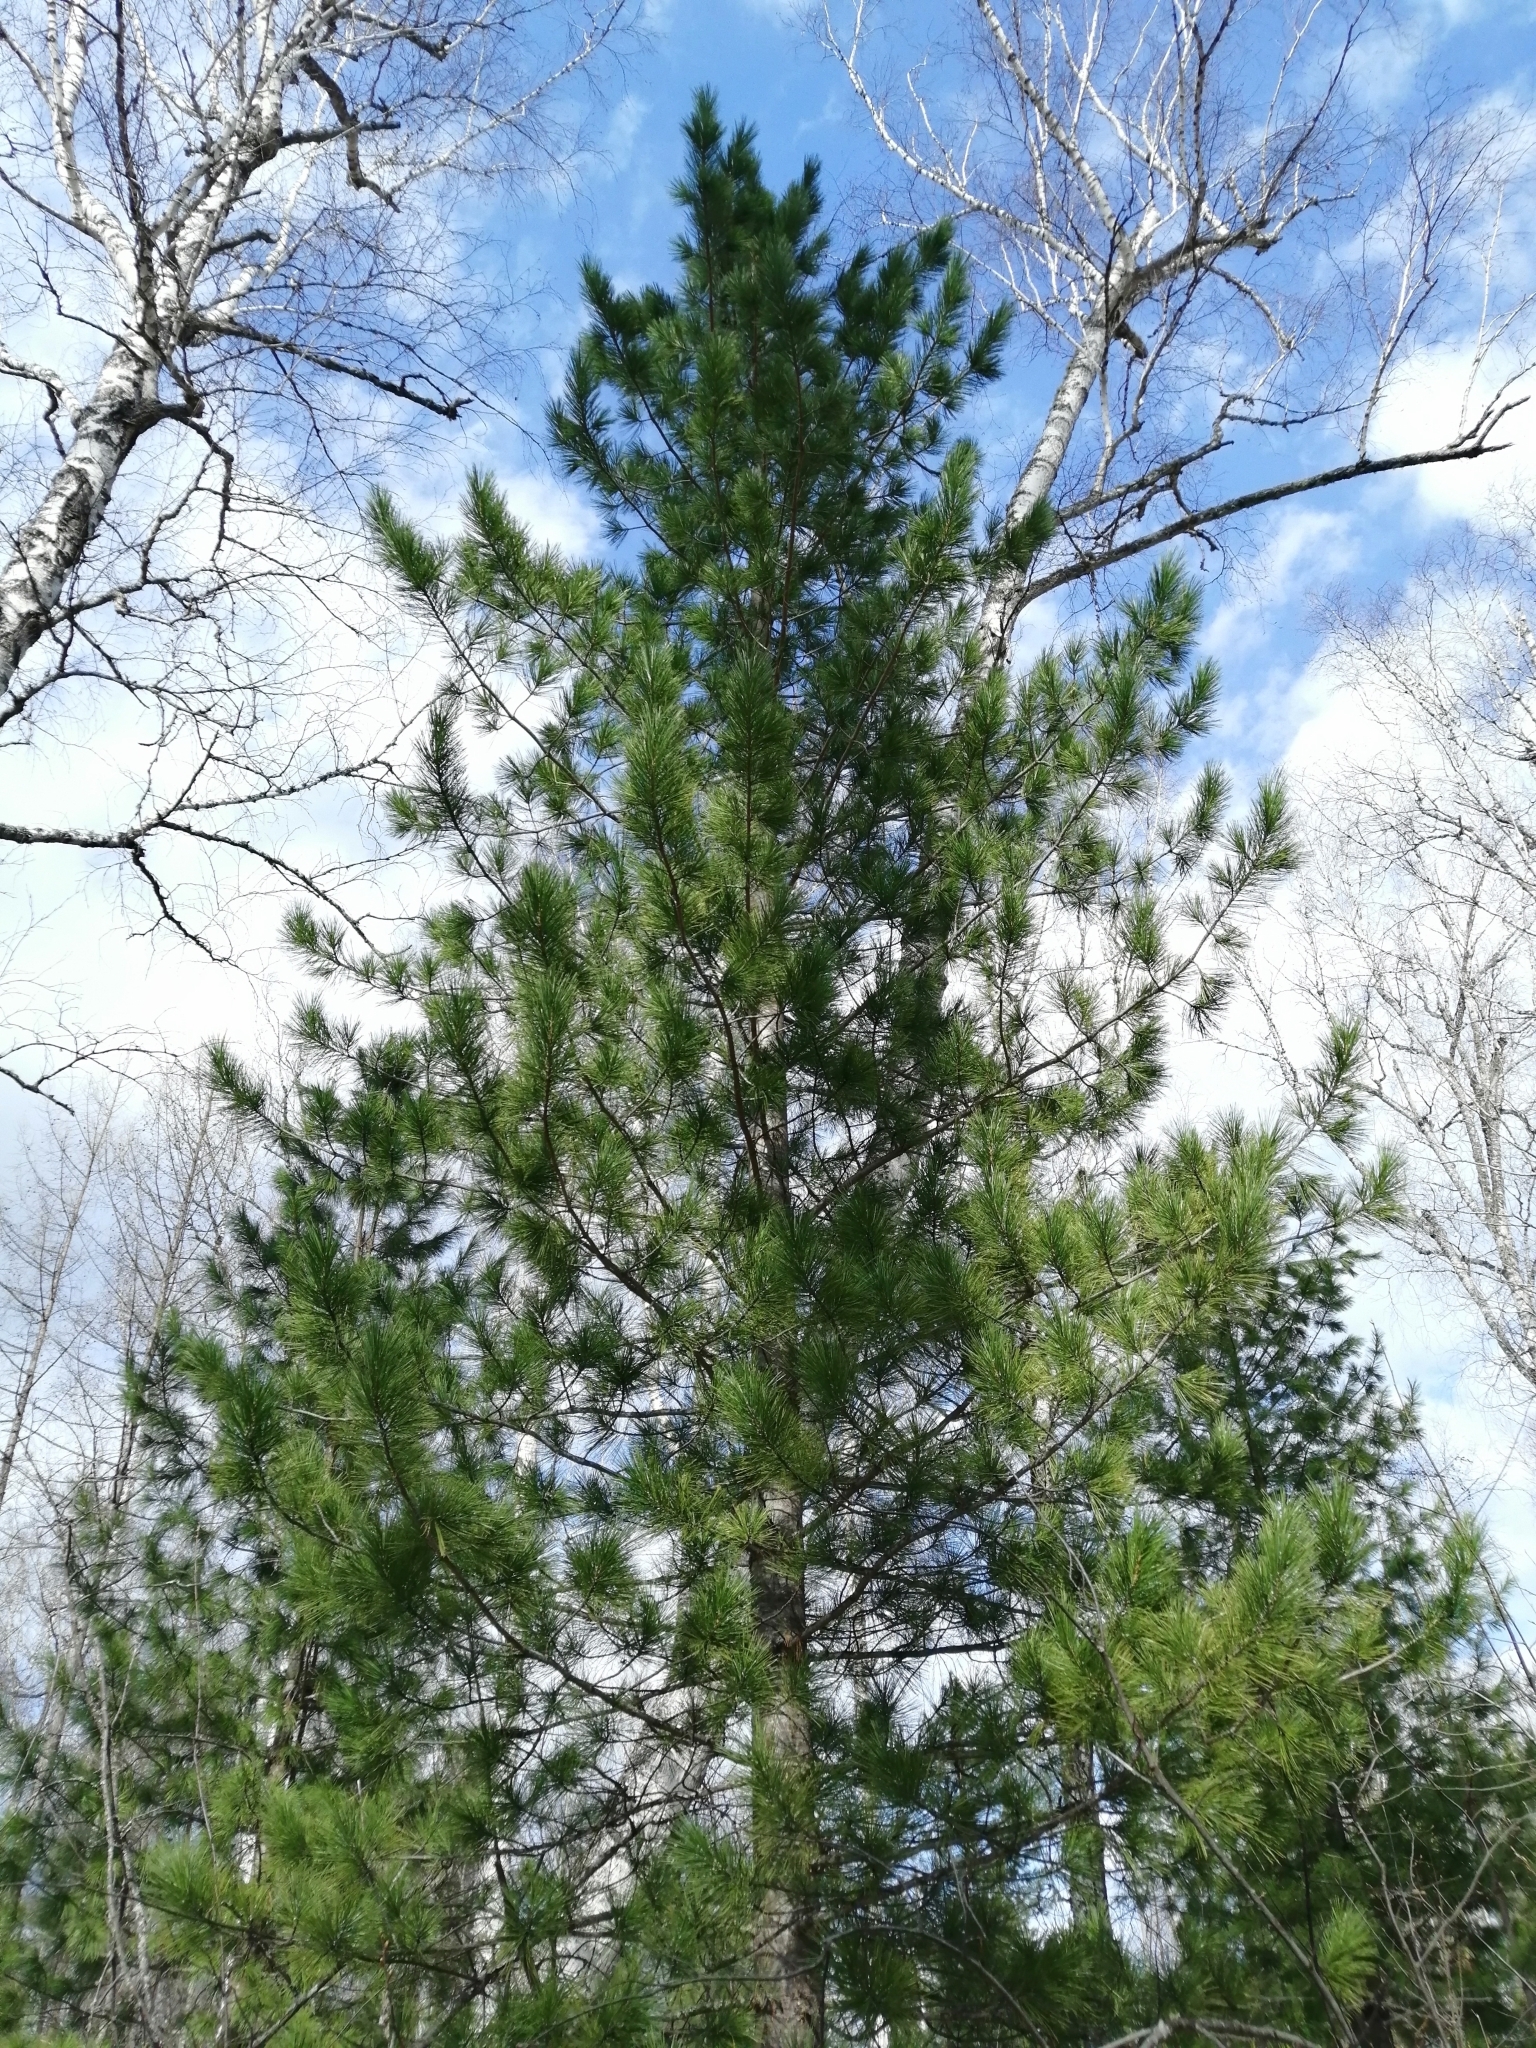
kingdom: Plantae
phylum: Tracheophyta
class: Pinopsida
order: Pinales
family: Pinaceae
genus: Pinus
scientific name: Pinus sibirica
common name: Siberian pine
